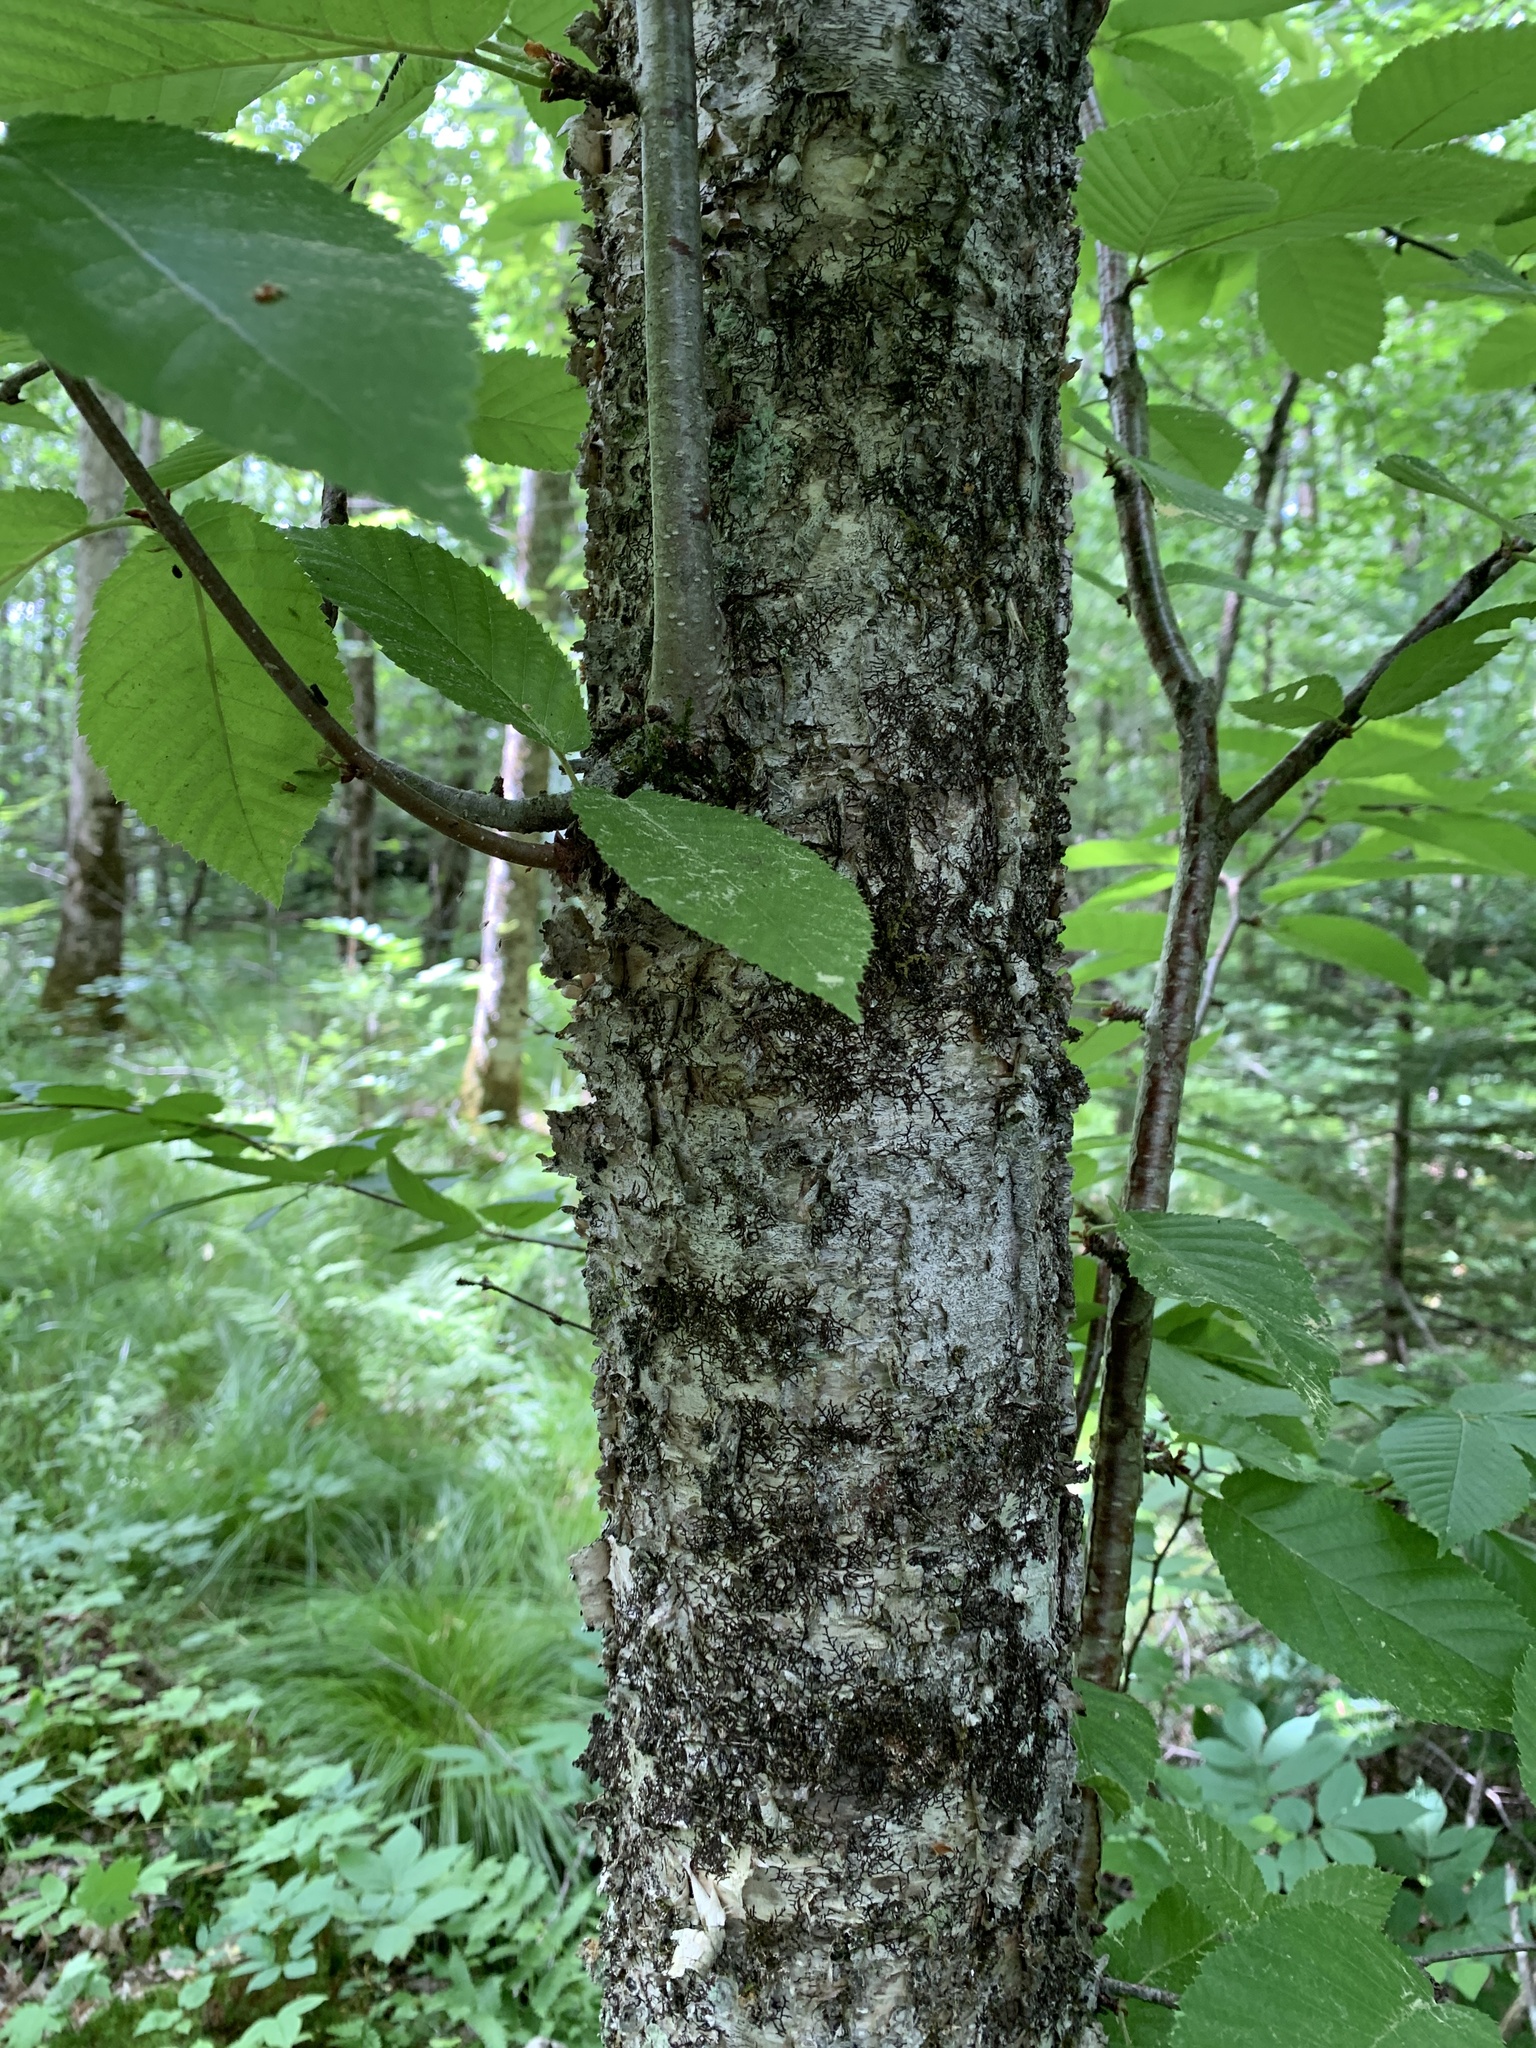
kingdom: Plantae
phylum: Tracheophyta
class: Magnoliopsida
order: Fagales
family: Betulaceae
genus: Betula
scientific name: Betula alleghaniensis
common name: Yellow birch
